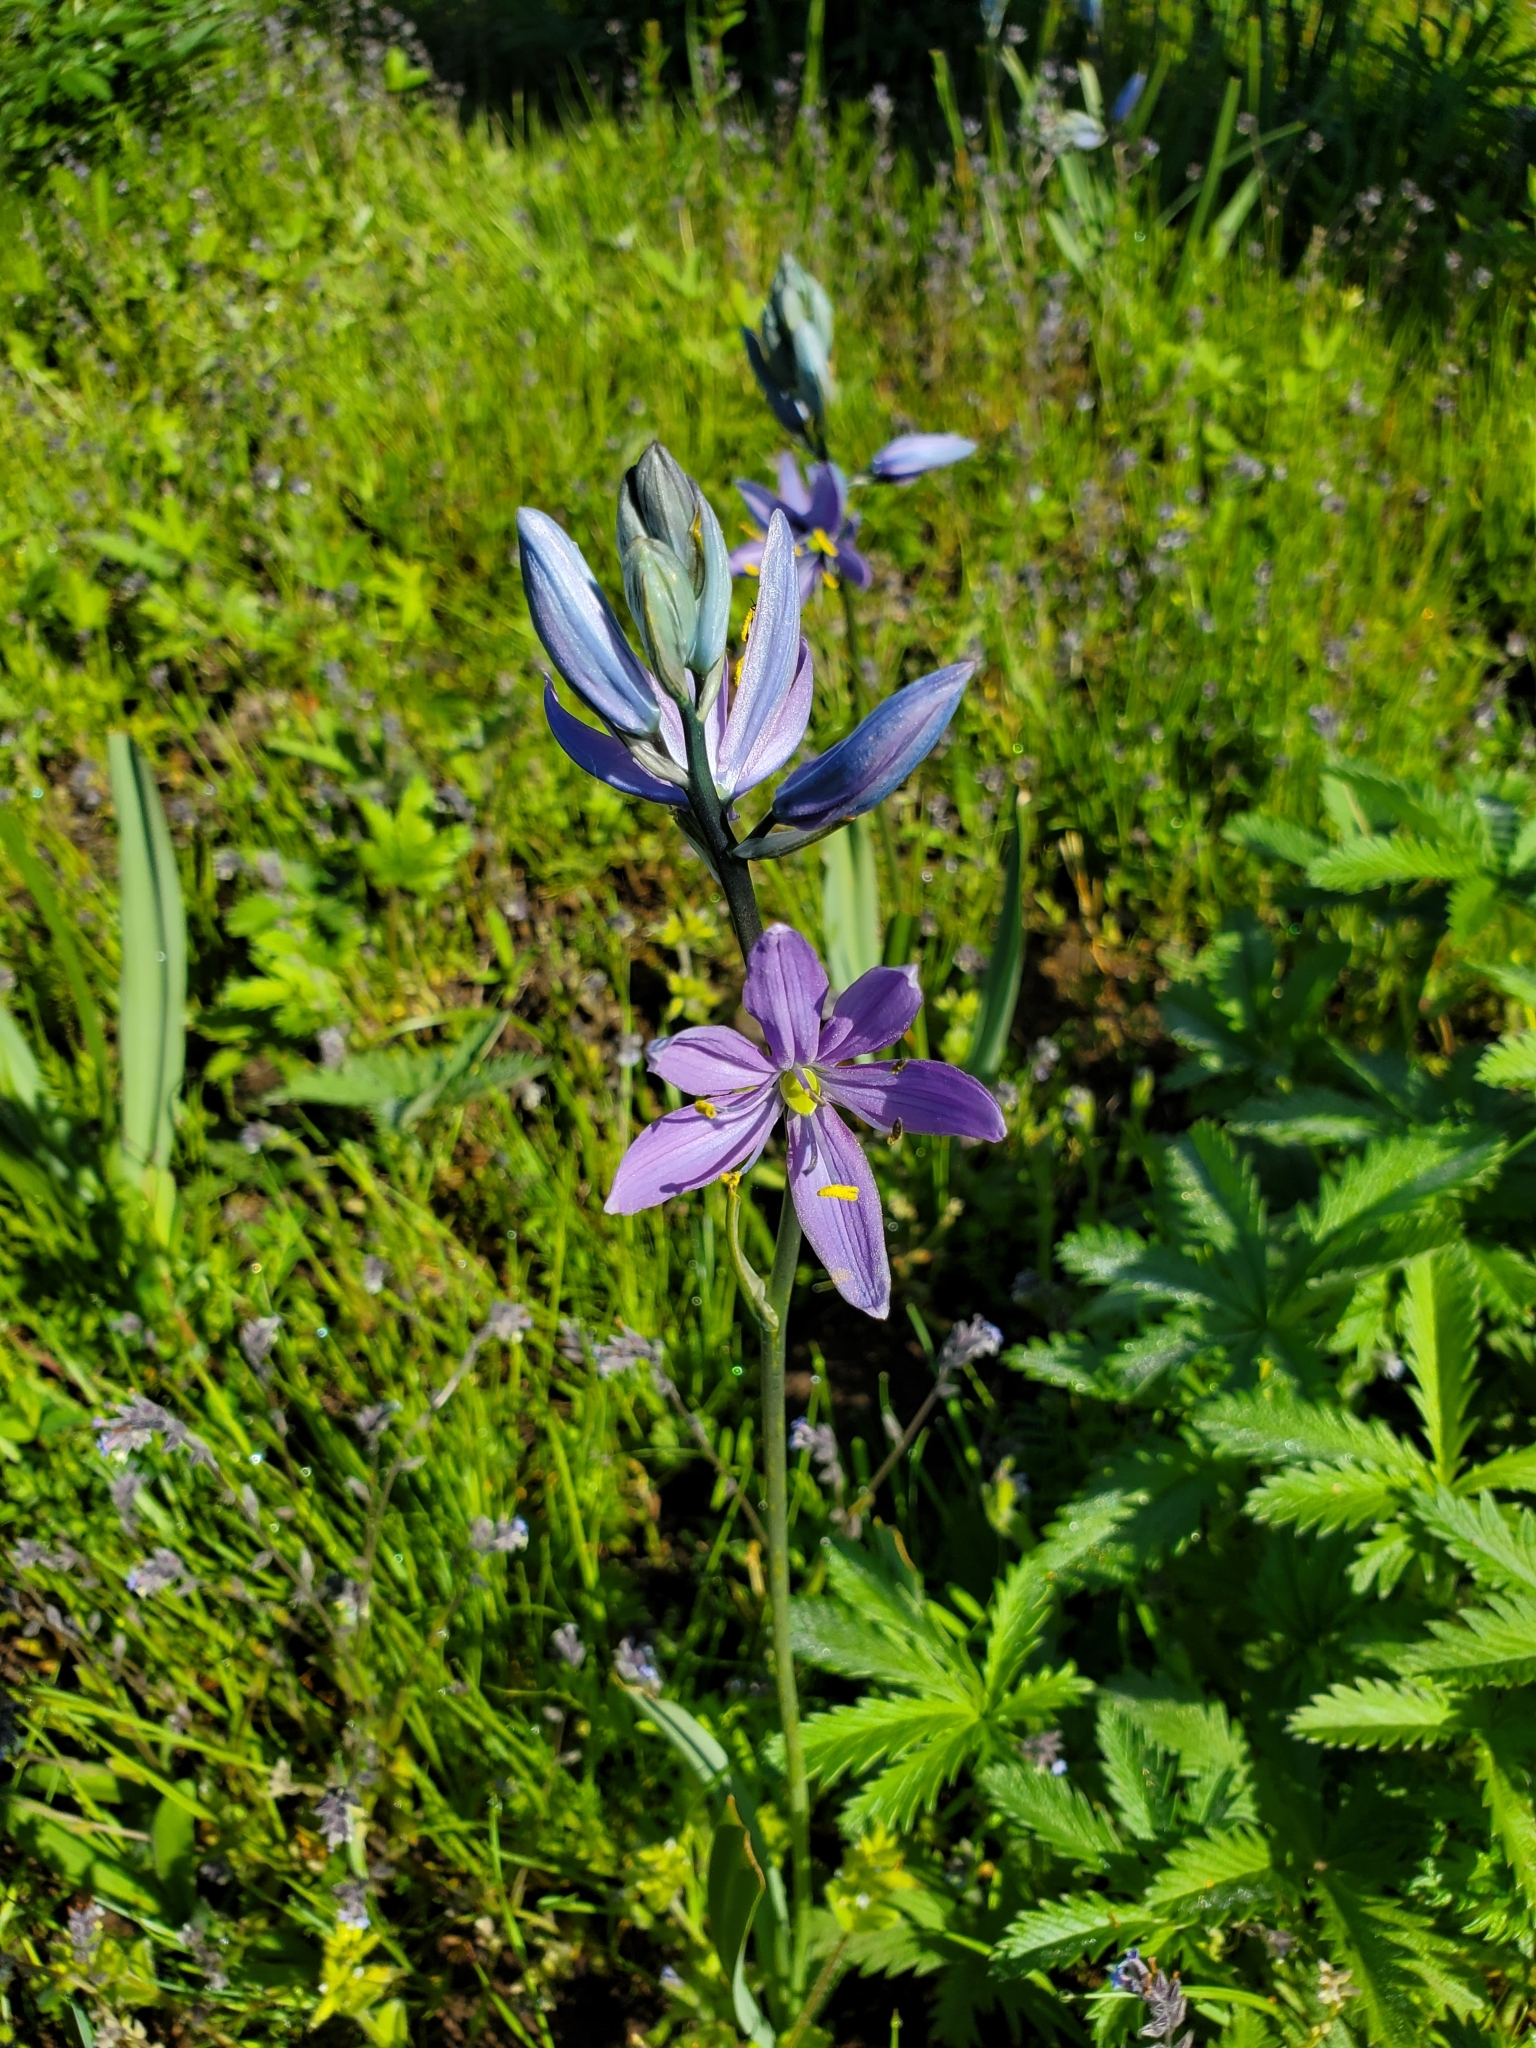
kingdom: Plantae
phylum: Tracheophyta
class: Liliopsida
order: Asparagales
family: Asparagaceae
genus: Camassia
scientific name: Camassia quamash
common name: Common camas
